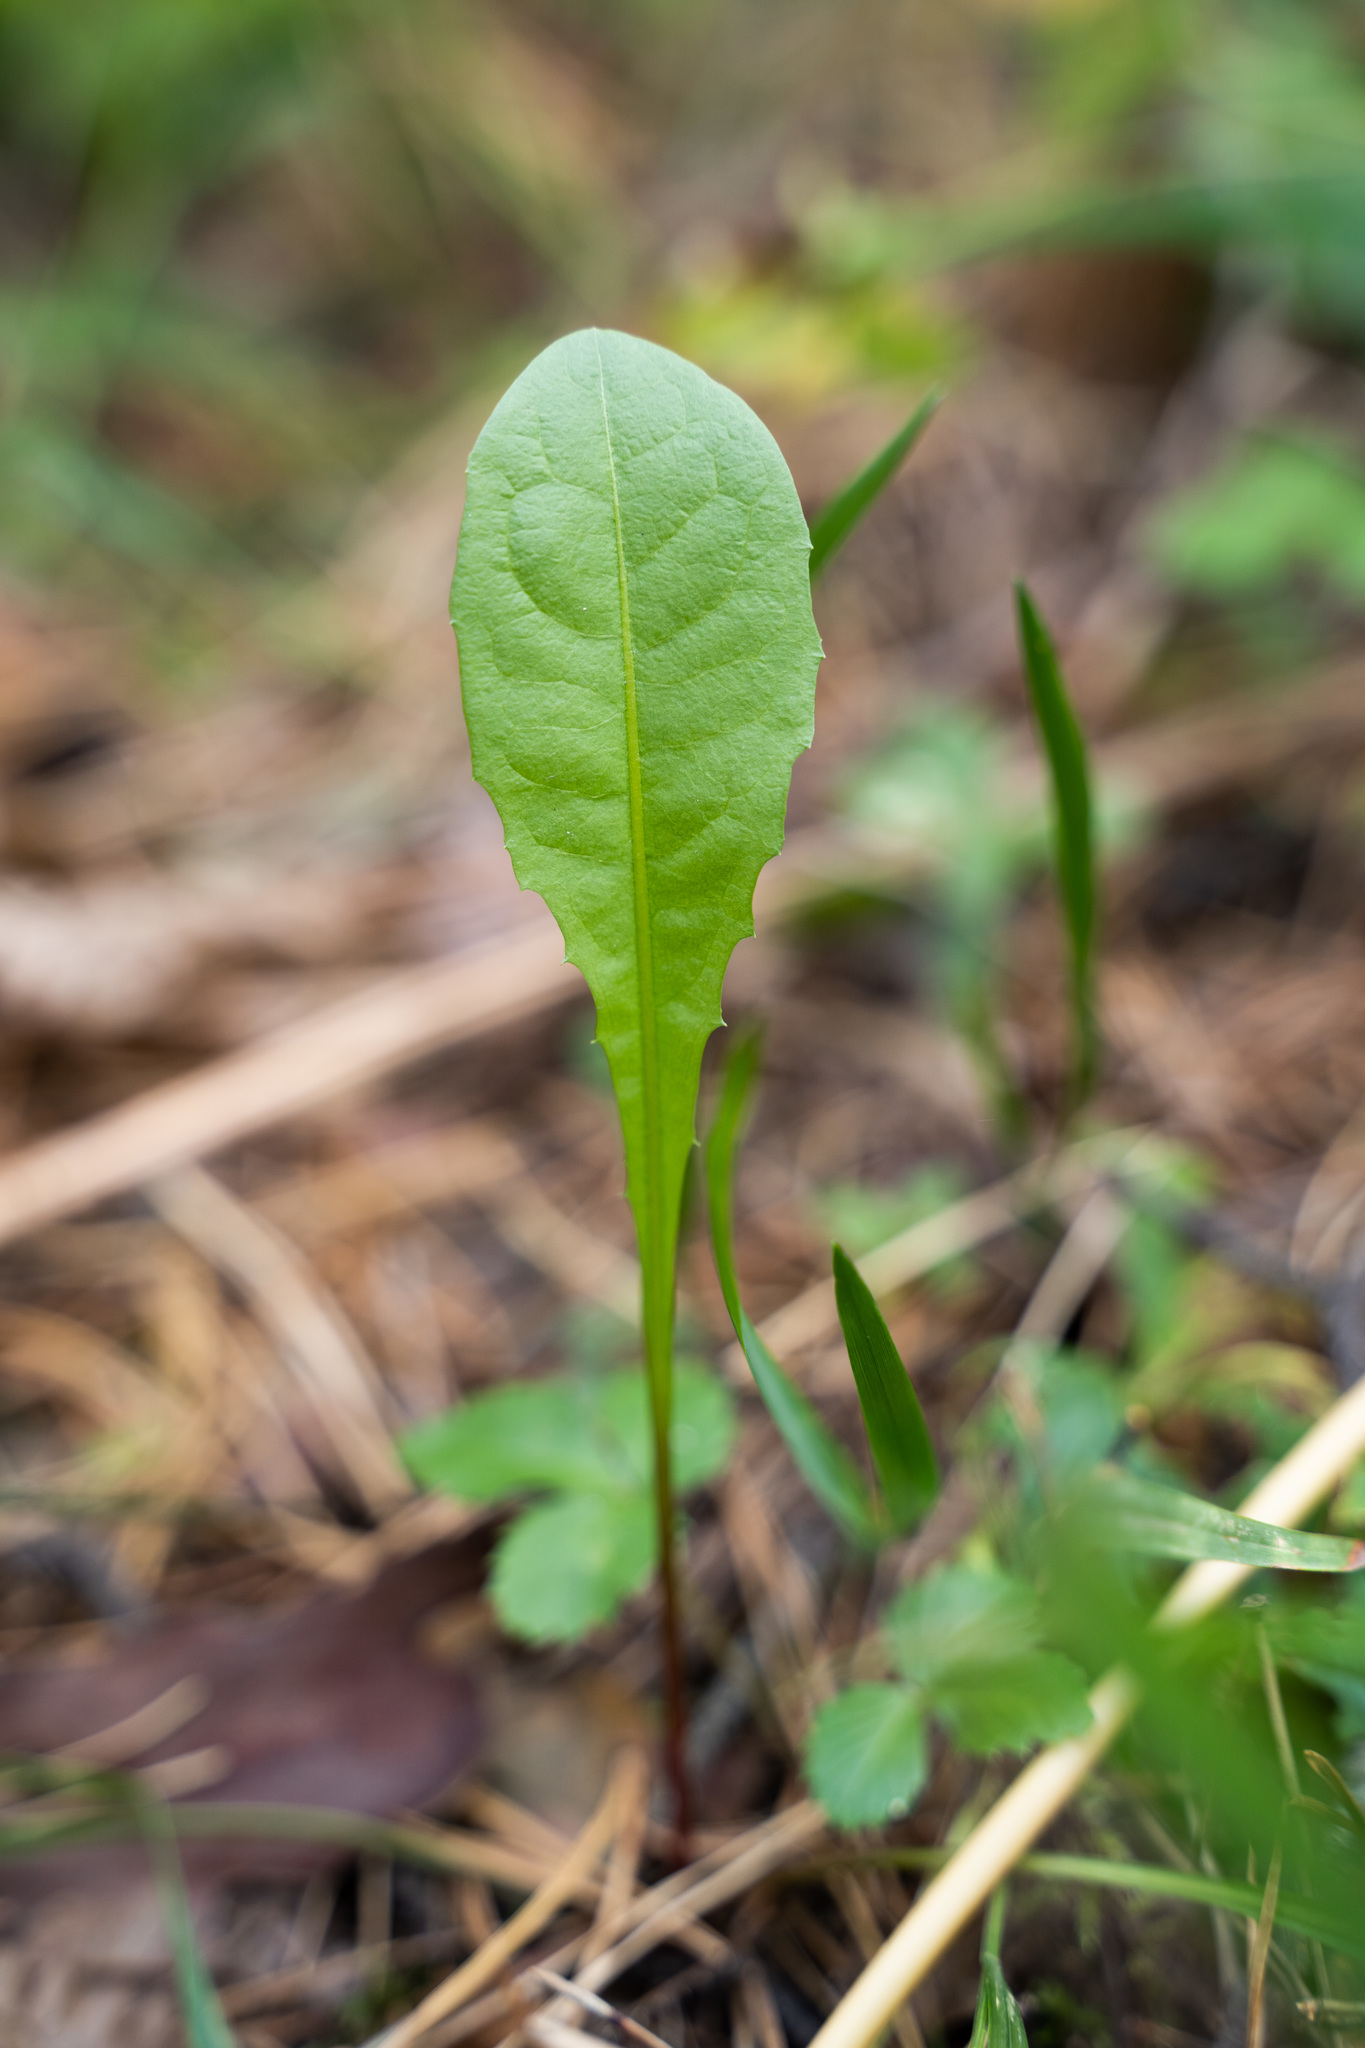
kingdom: Plantae
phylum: Tracheophyta
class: Magnoliopsida
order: Asterales
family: Asteraceae
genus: Taraxacum
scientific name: Taraxacum officinale
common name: Common dandelion
